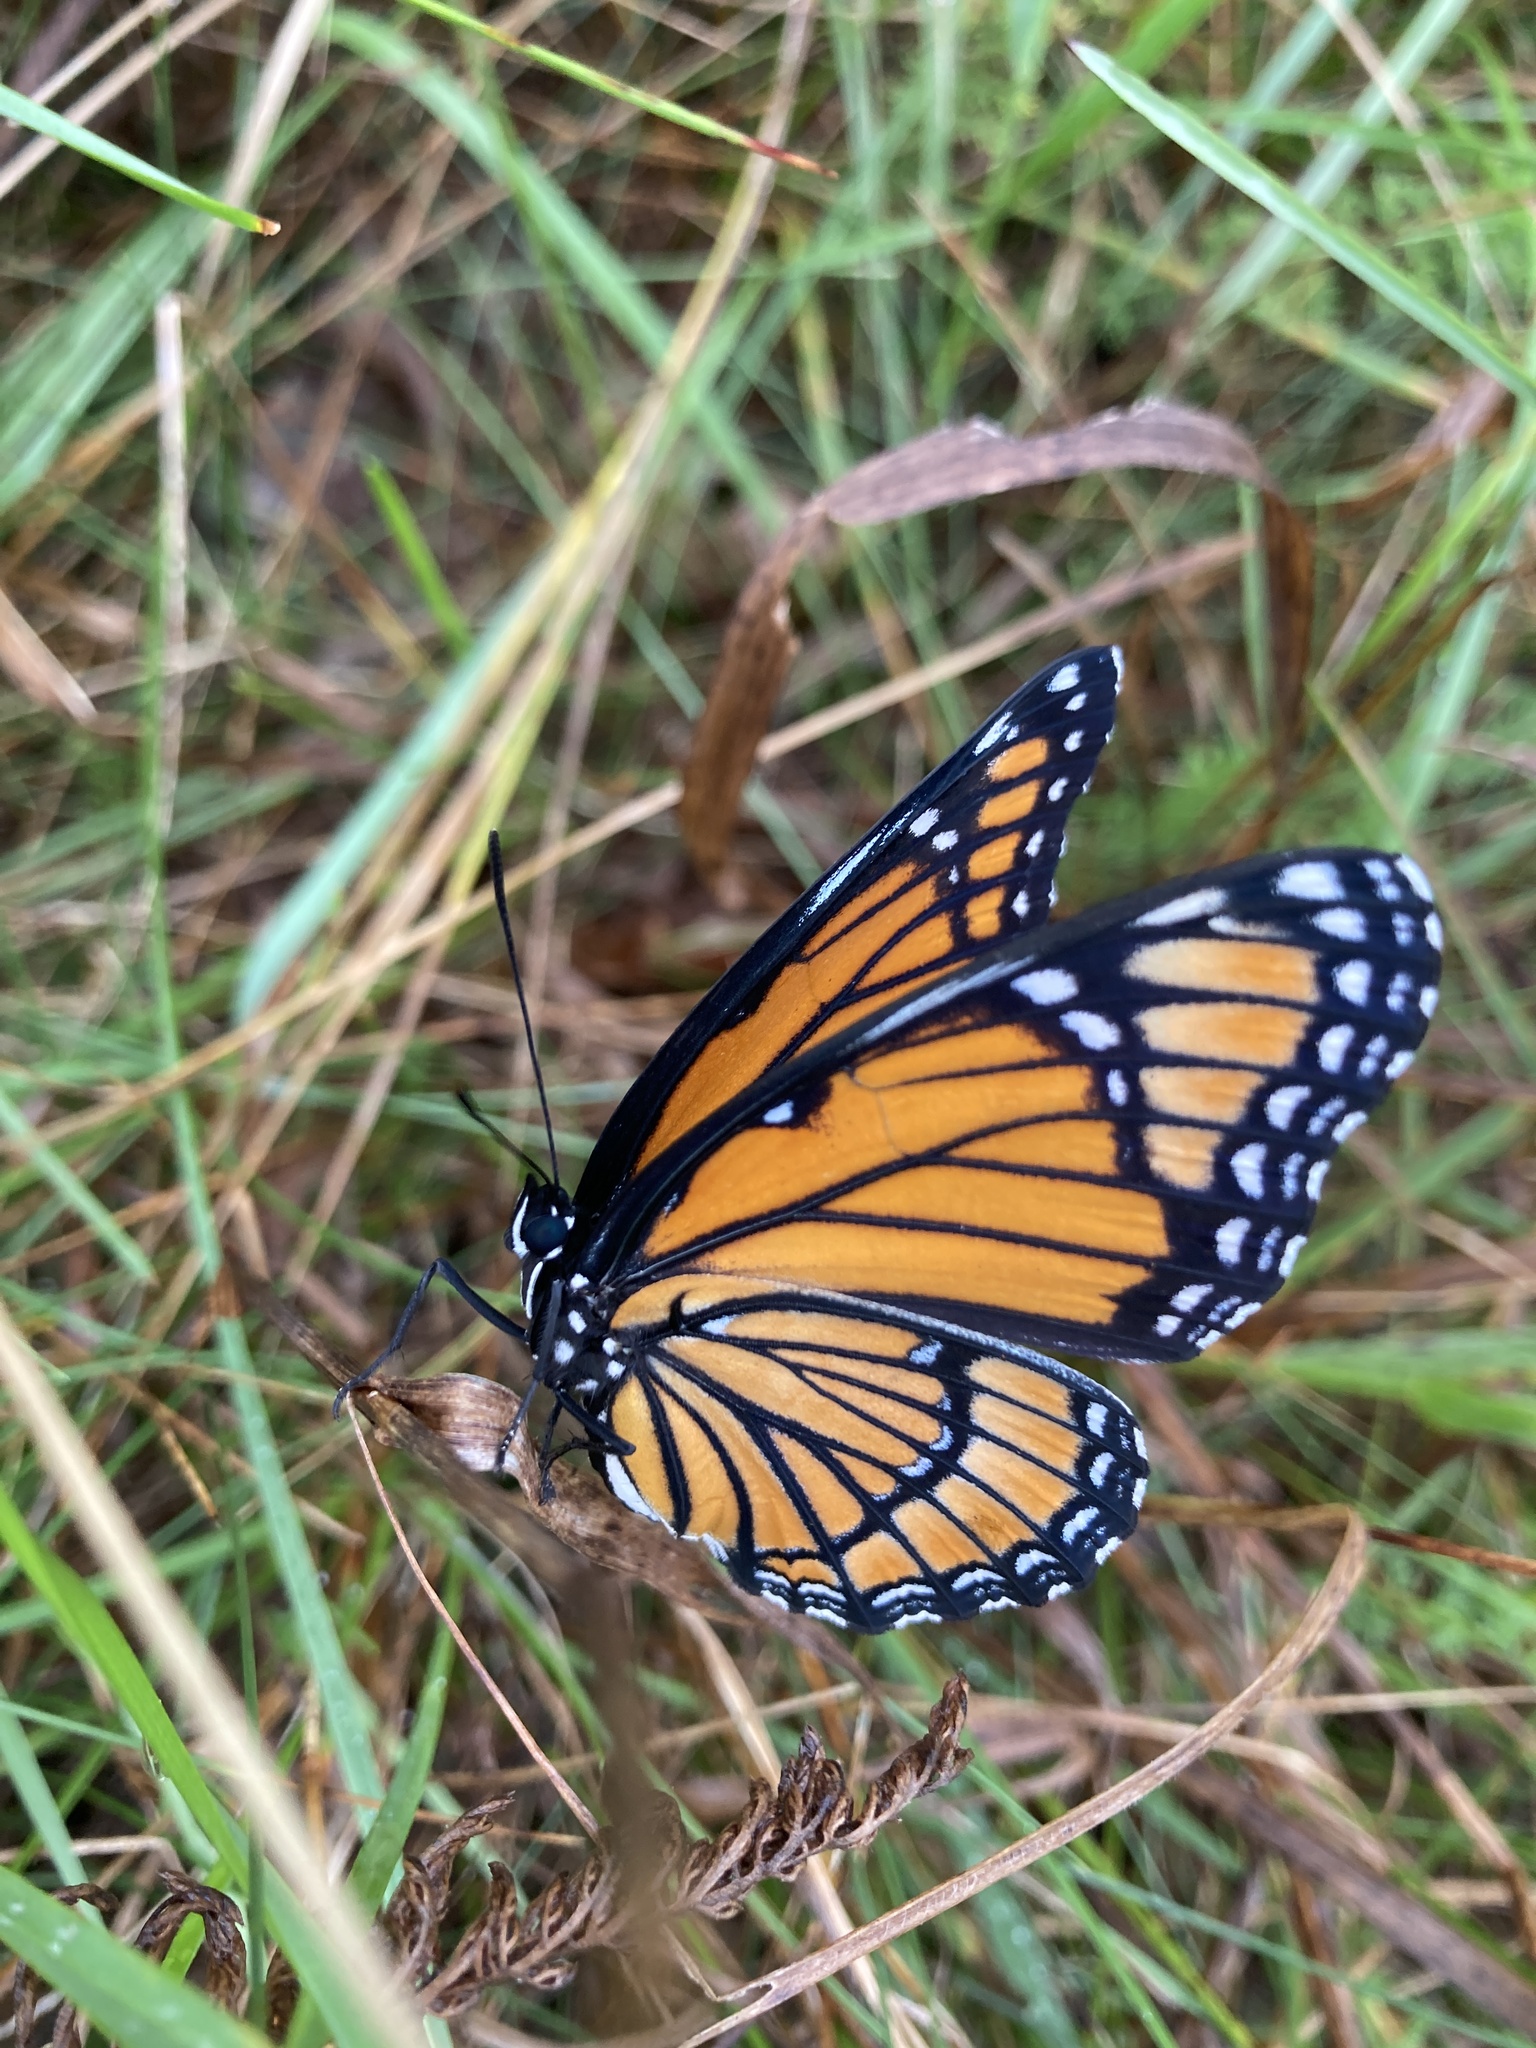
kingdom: Animalia
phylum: Arthropoda
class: Insecta
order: Lepidoptera
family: Nymphalidae
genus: Limenitis
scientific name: Limenitis archippus
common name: Viceroy
